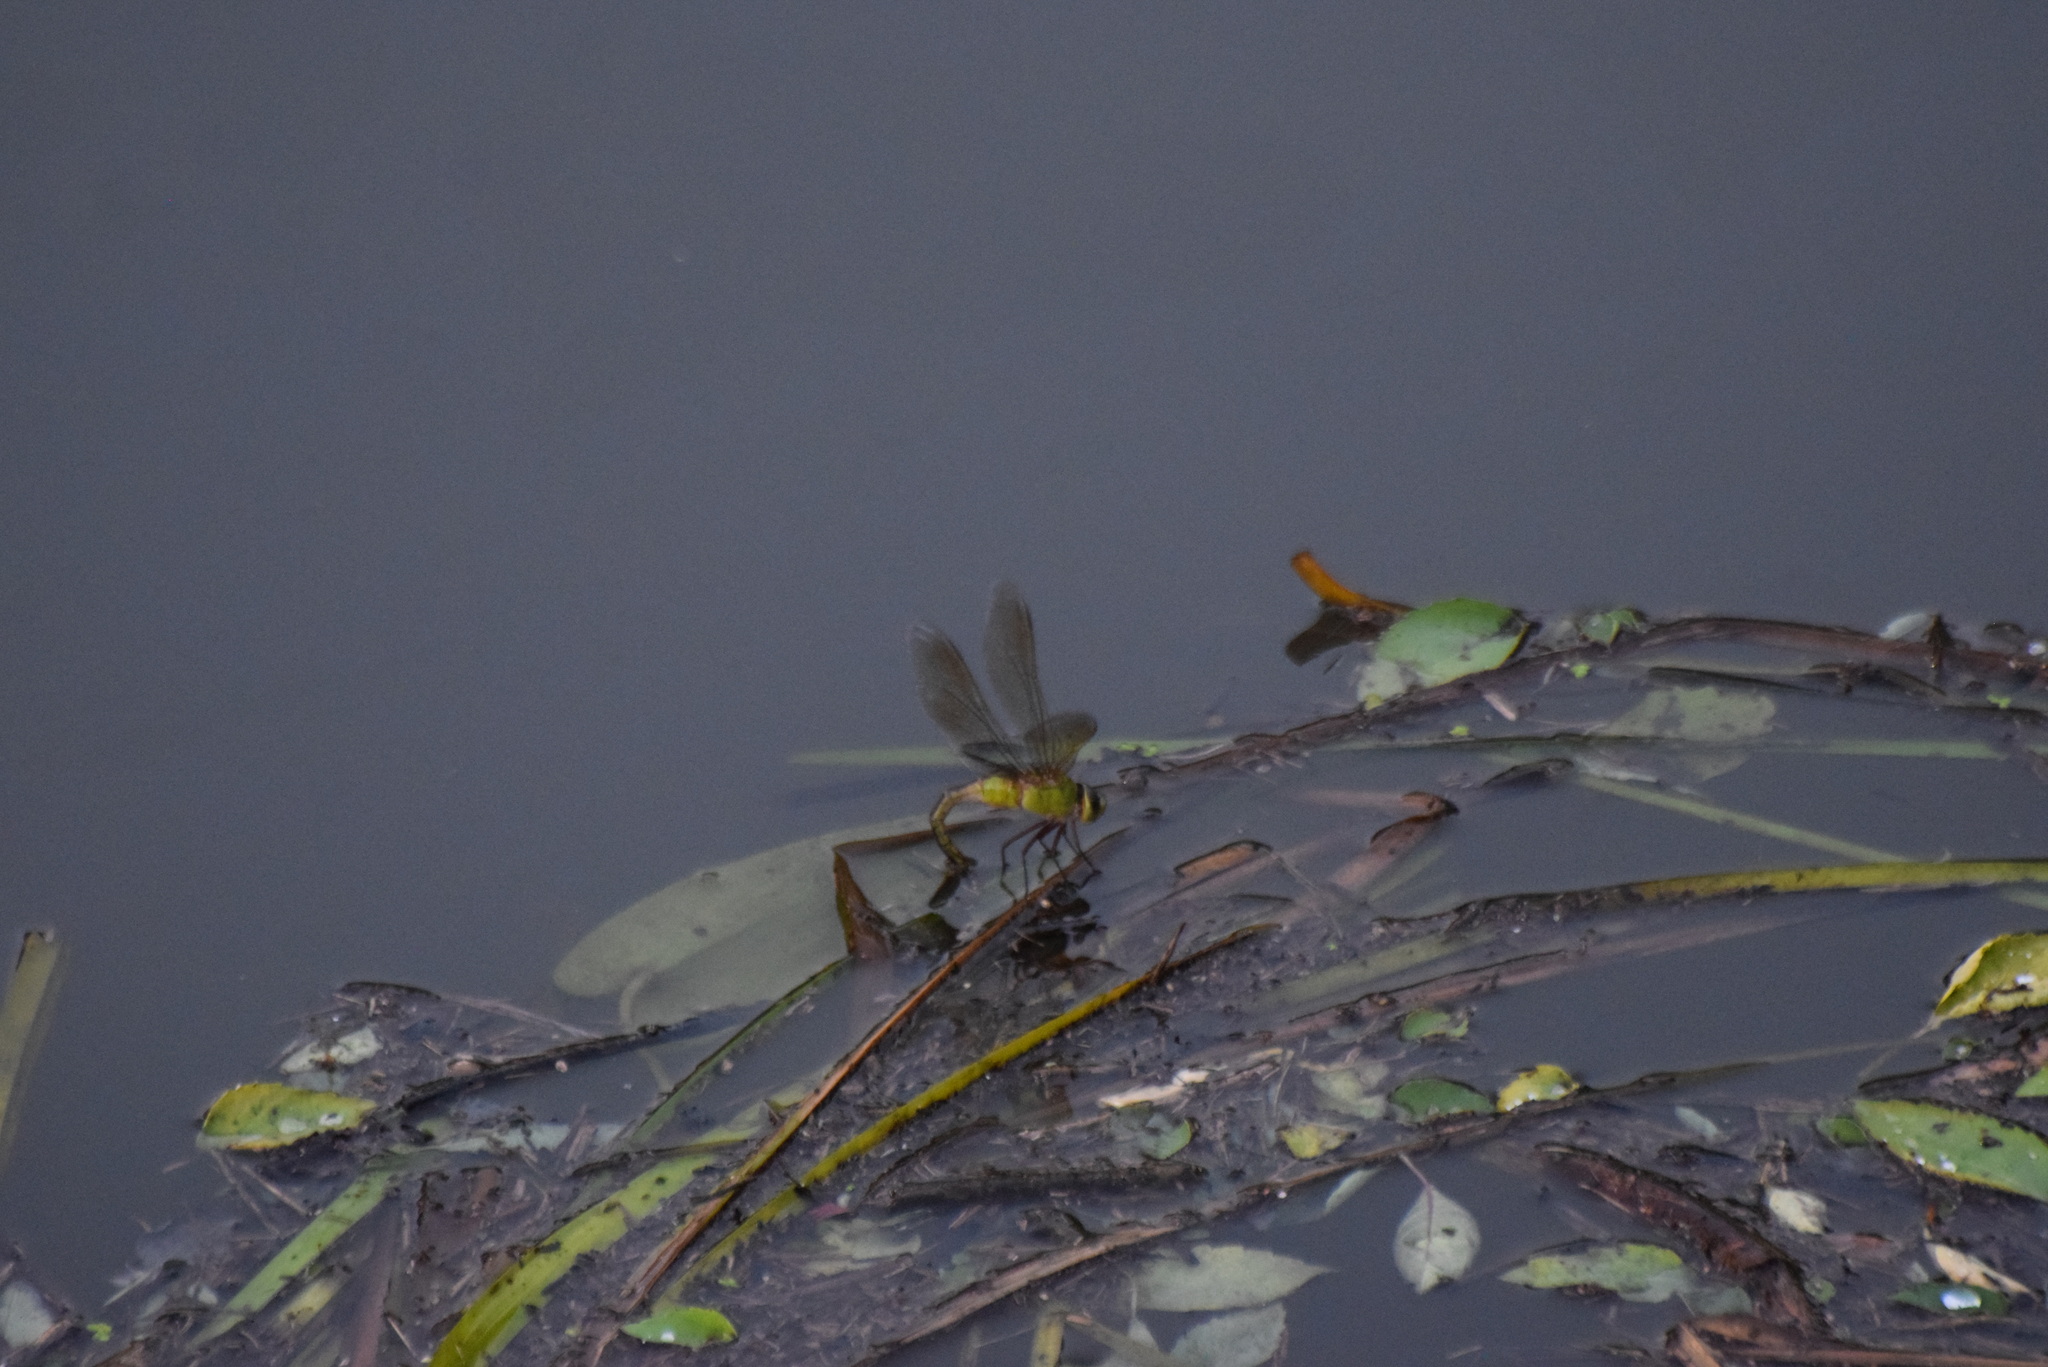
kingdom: Animalia
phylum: Arthropoda
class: Insecta
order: Odonata
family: Aeshnidae
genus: Anax
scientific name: Anax junius
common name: Common green darner
